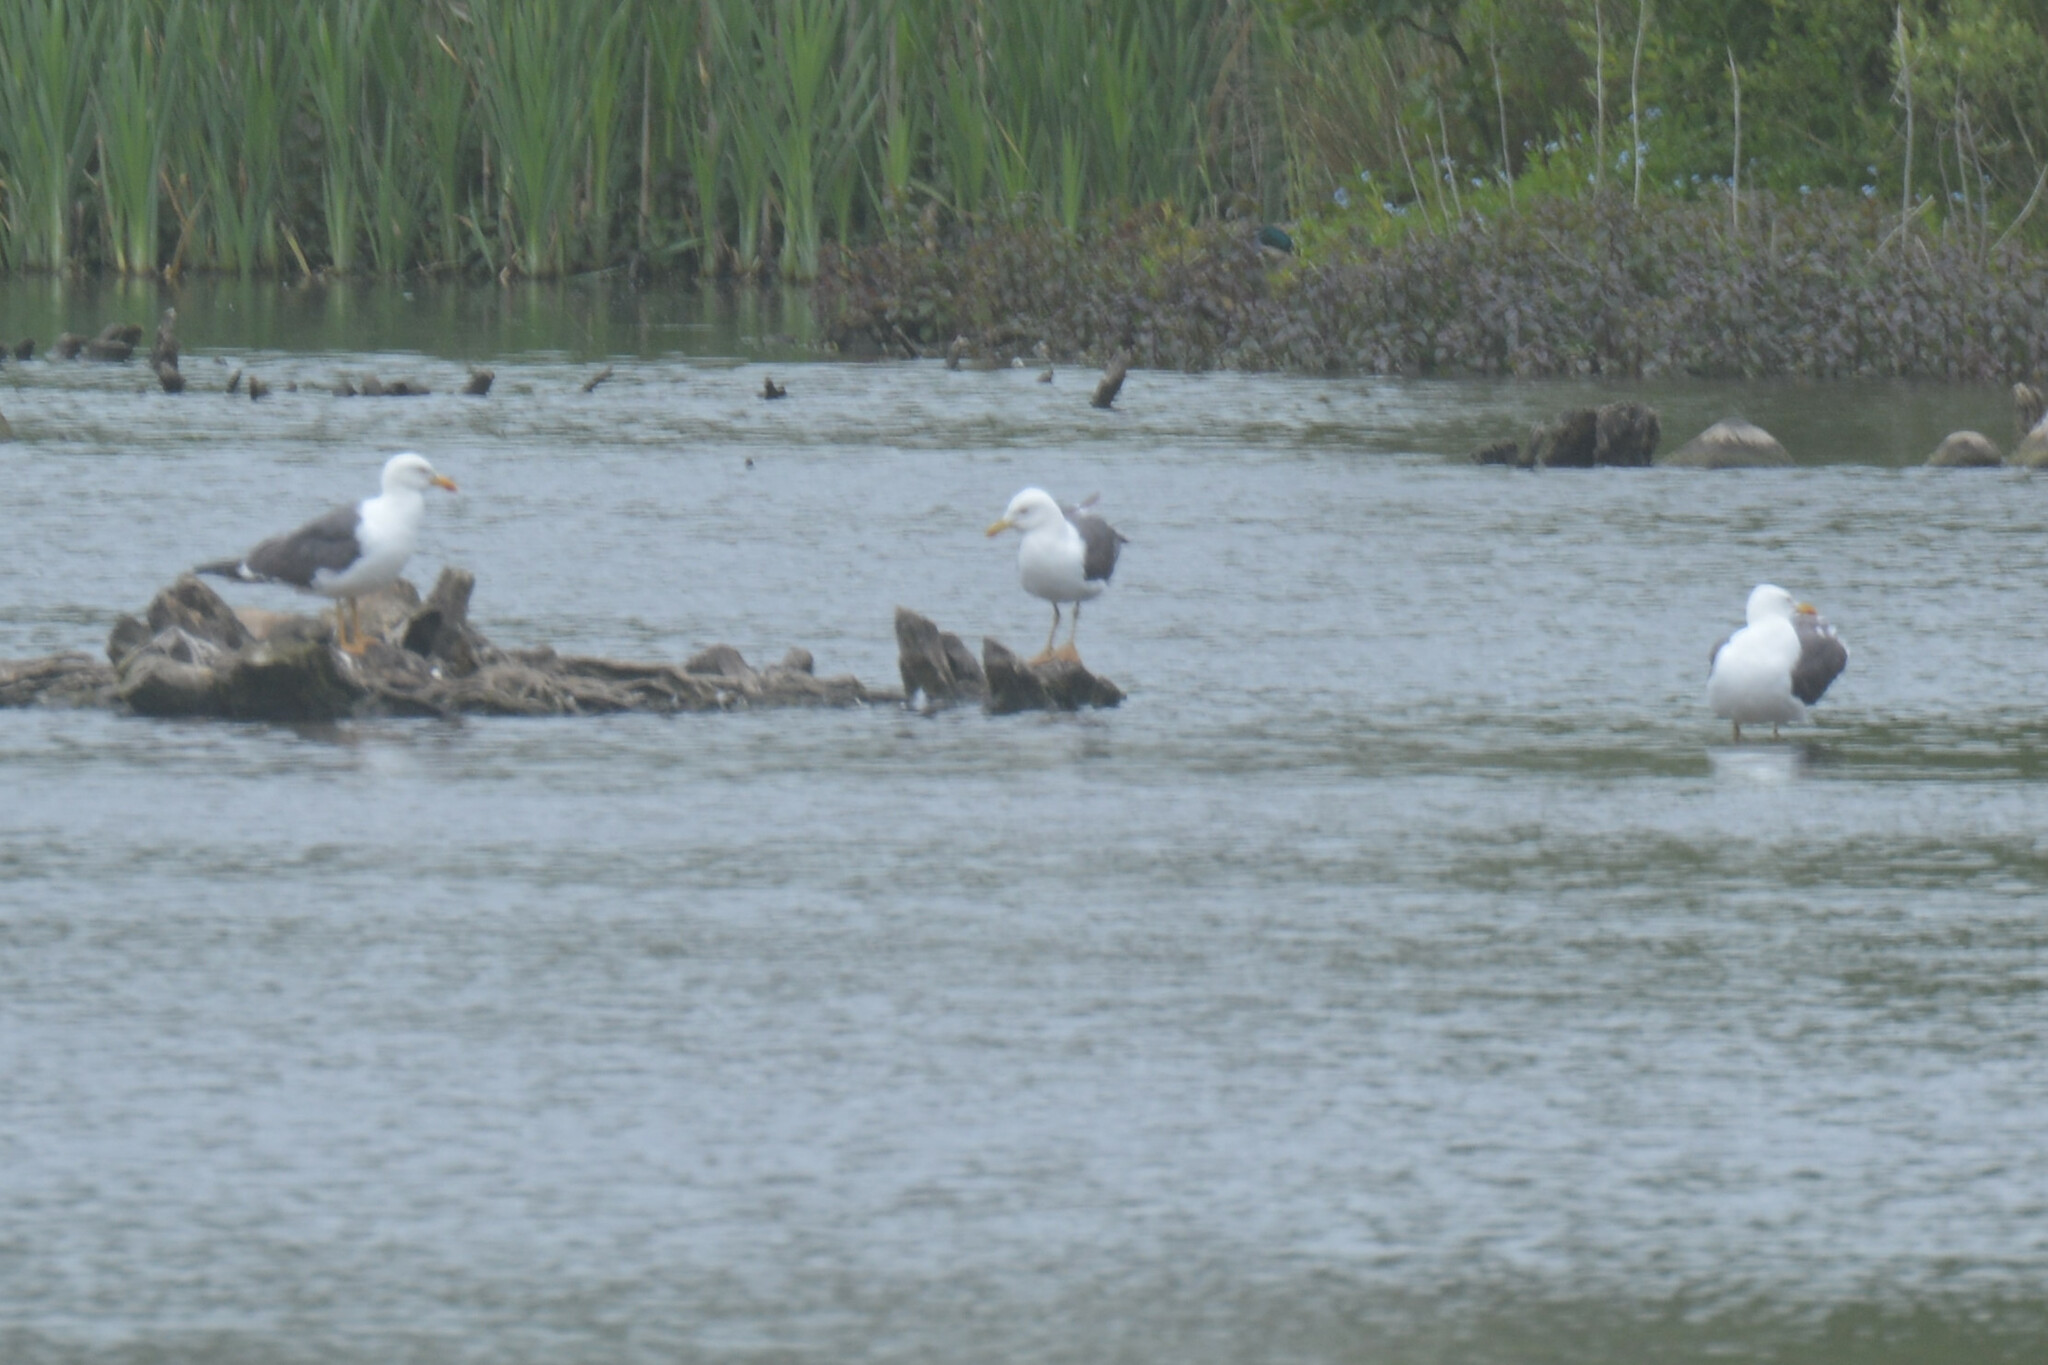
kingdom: Animalia
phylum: Chordata
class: Aves
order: Charadriiformes
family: Laridae
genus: Larus
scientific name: Larus fuscus
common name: Lesser black-backed gull
